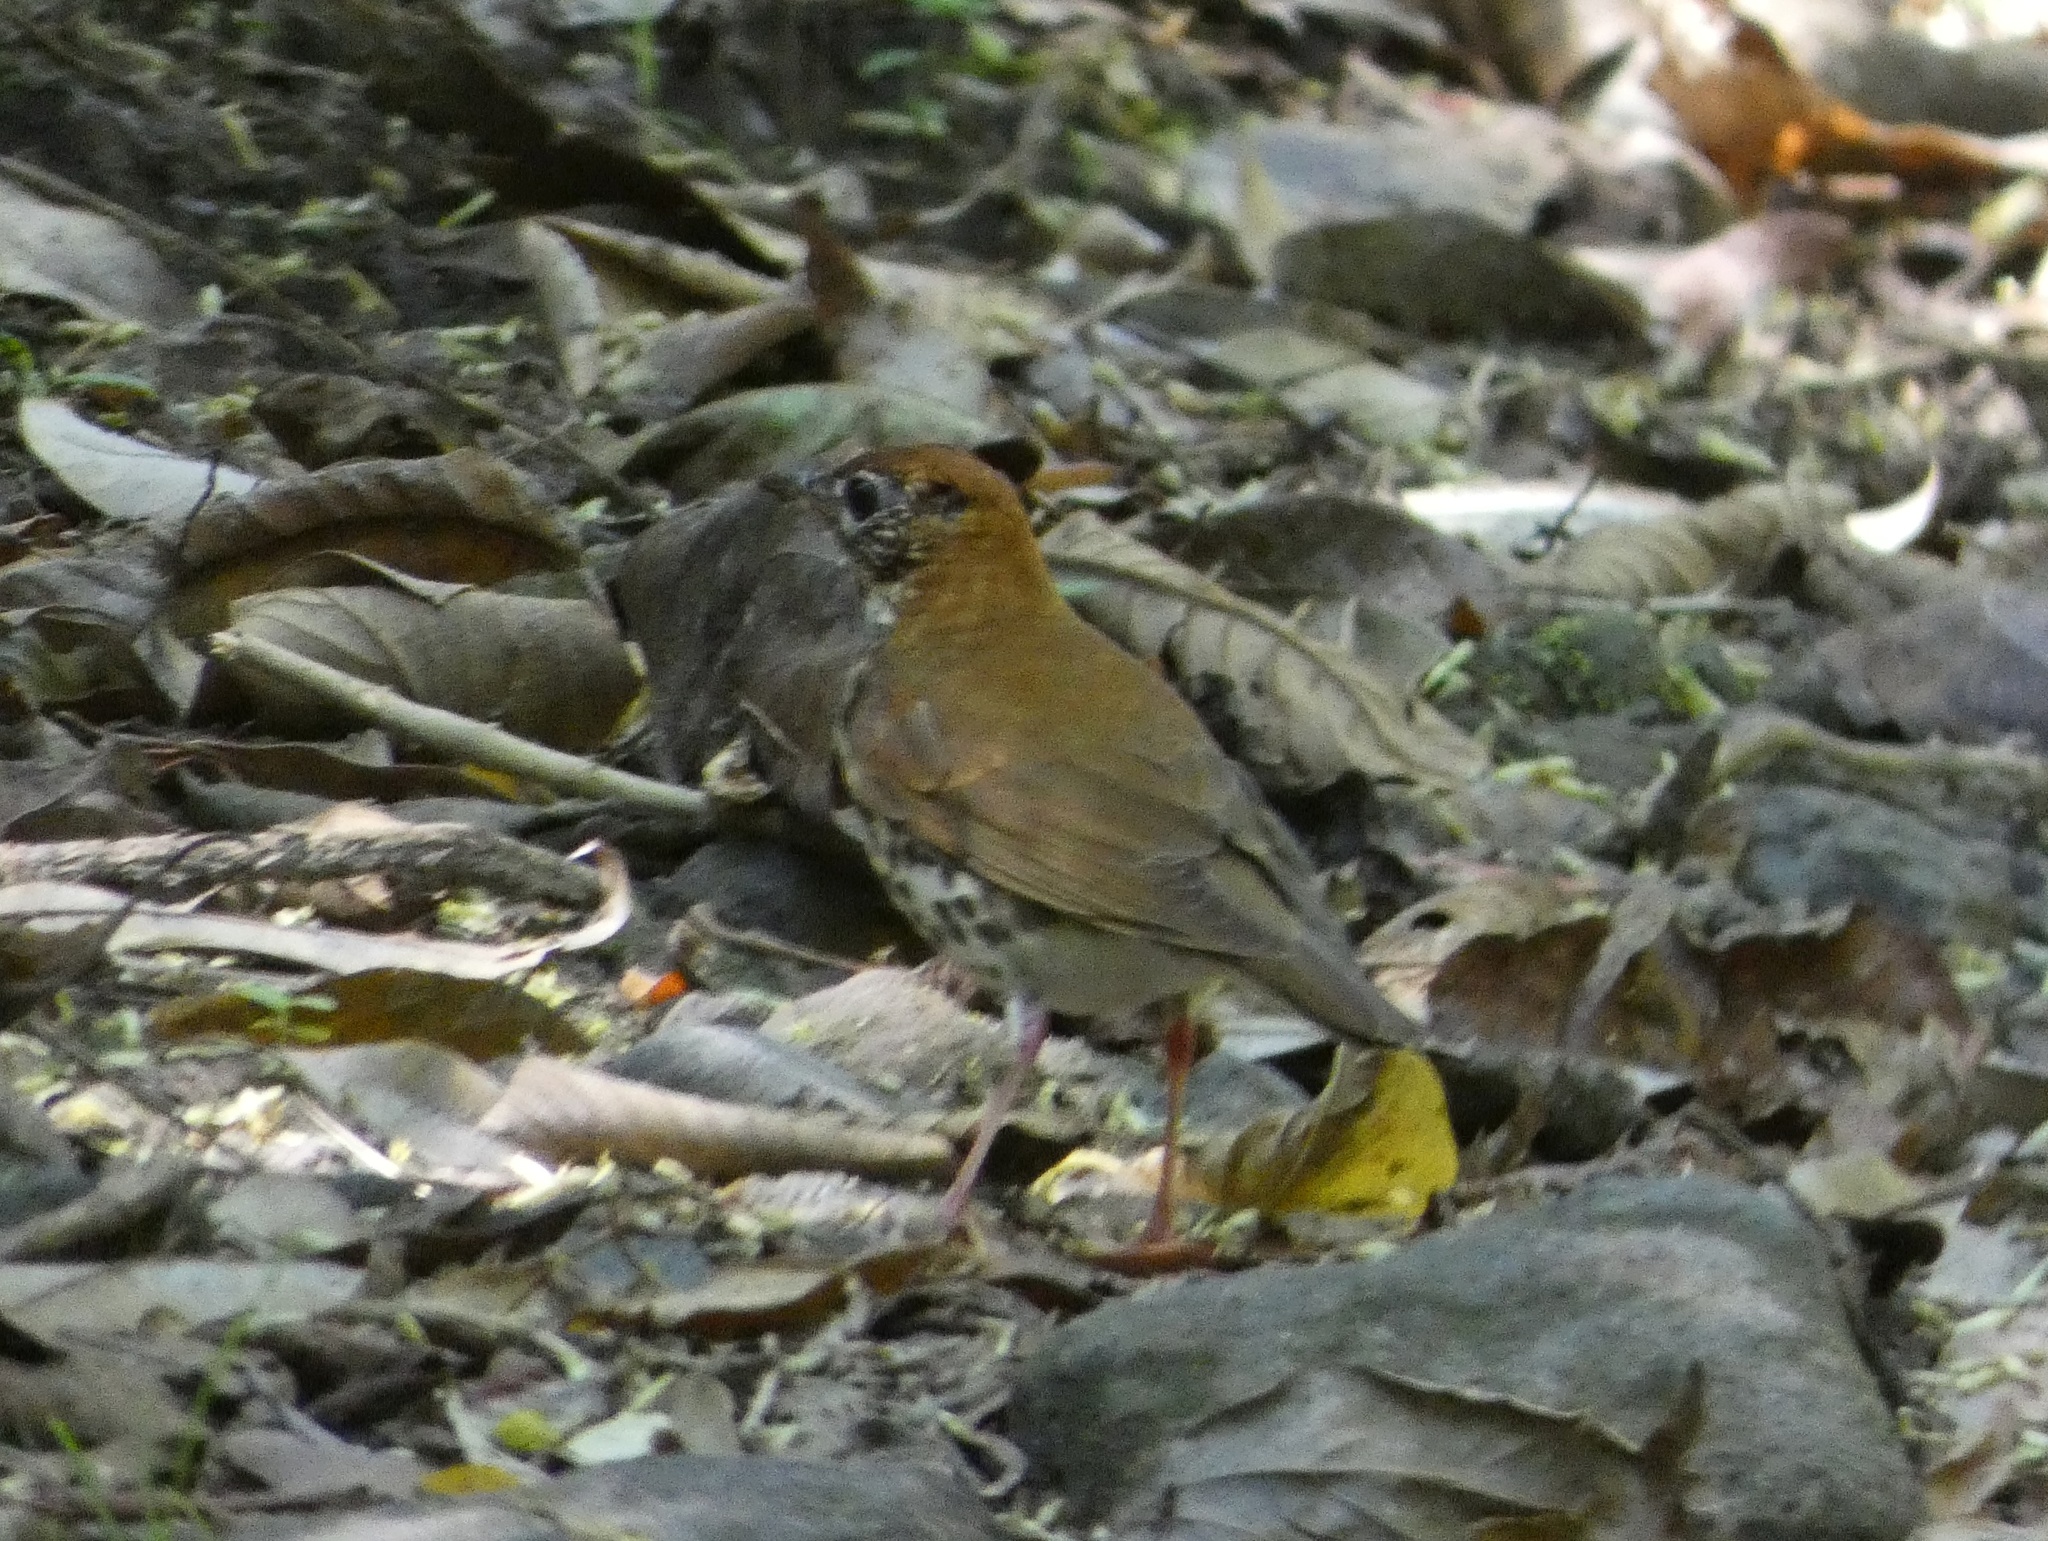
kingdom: Animalia
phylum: Chordata
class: Aves
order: Passeriformes
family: Turdidae
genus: Hylocichla
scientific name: Hylocichla mustelina
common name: Wood thrush
